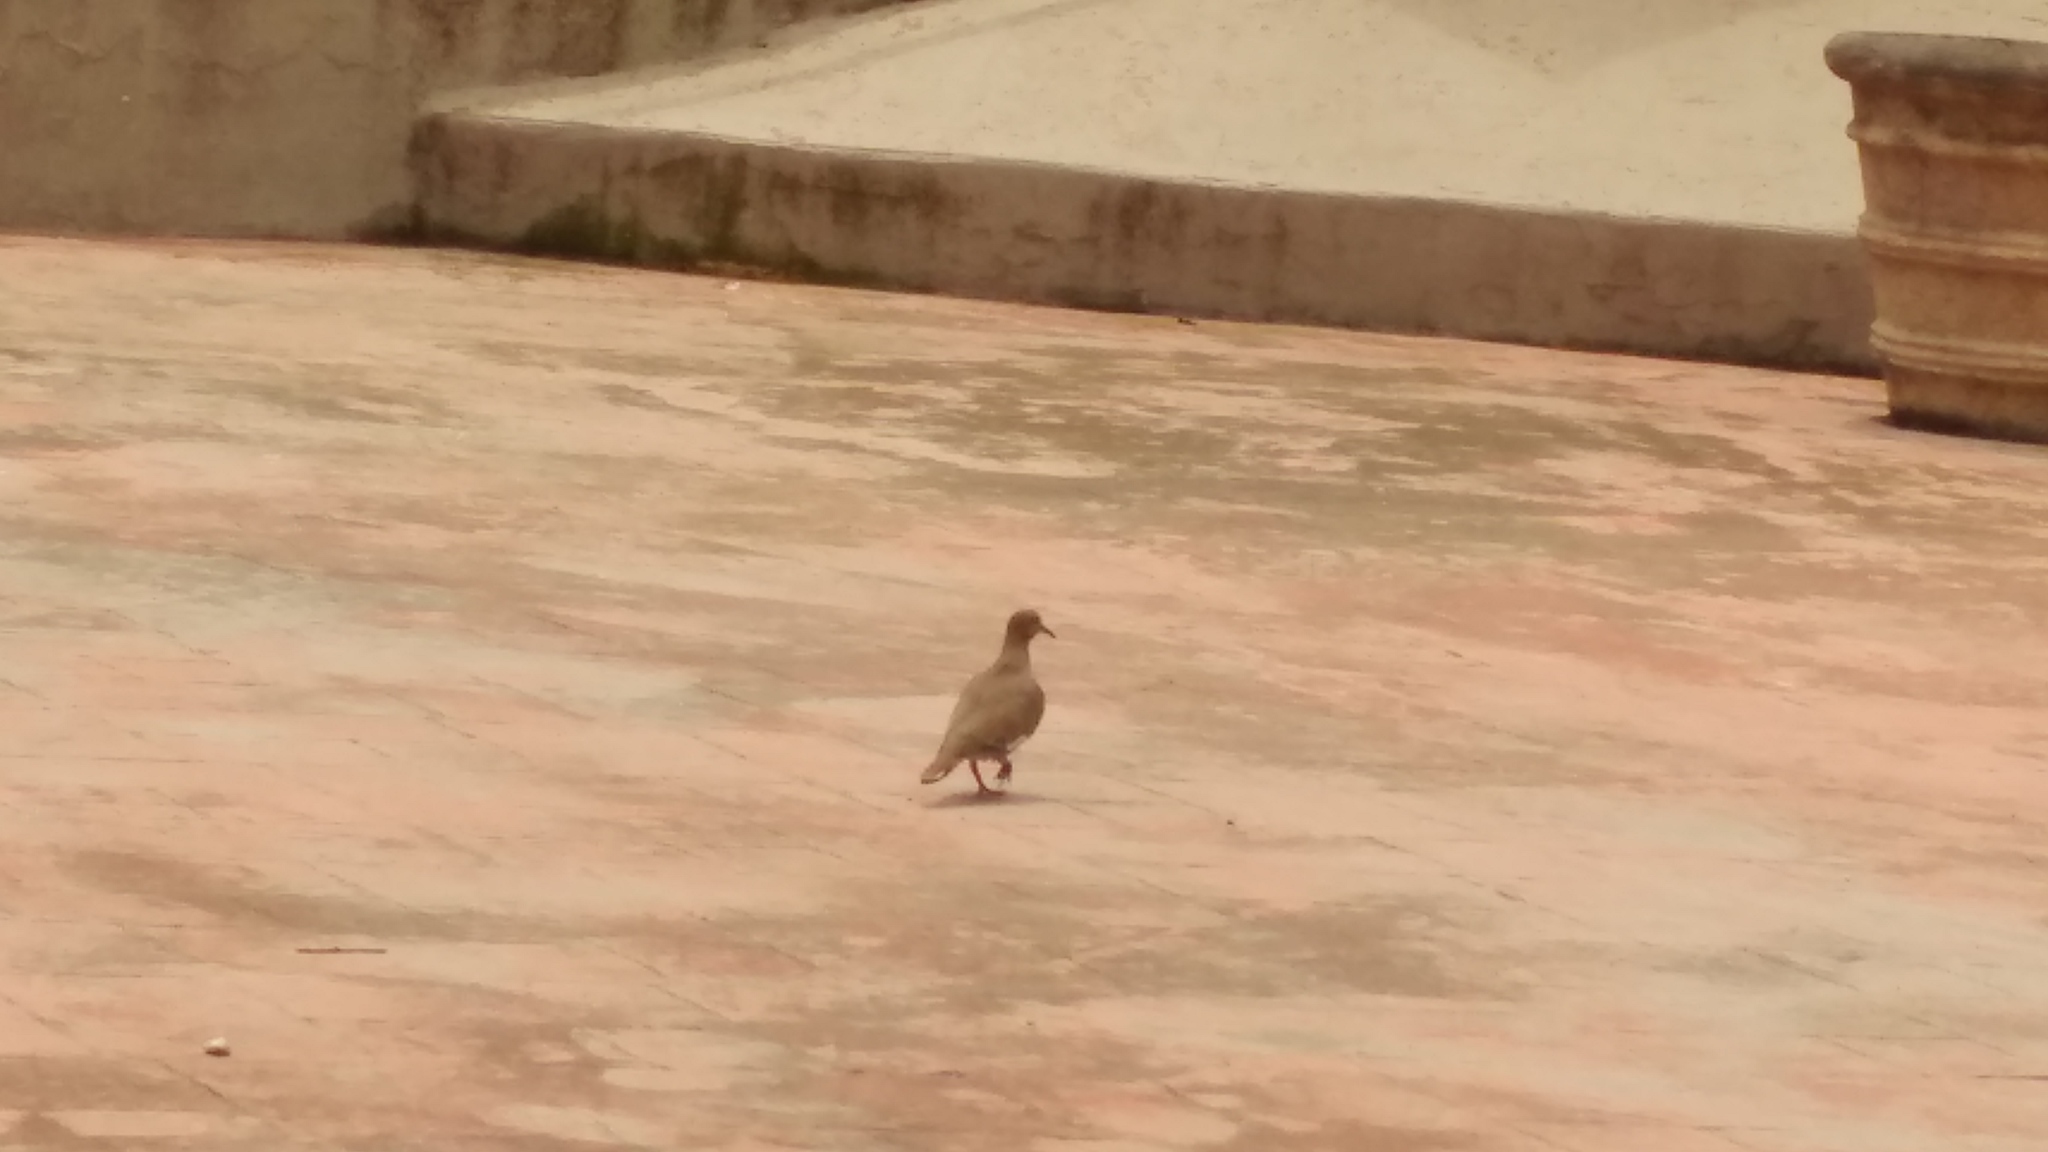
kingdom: Animalia
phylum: Chordata
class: Aves
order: Columbiformes
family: Columbidae
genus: Zenaida
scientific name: Zenaida asiatica
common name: White-winged dove
